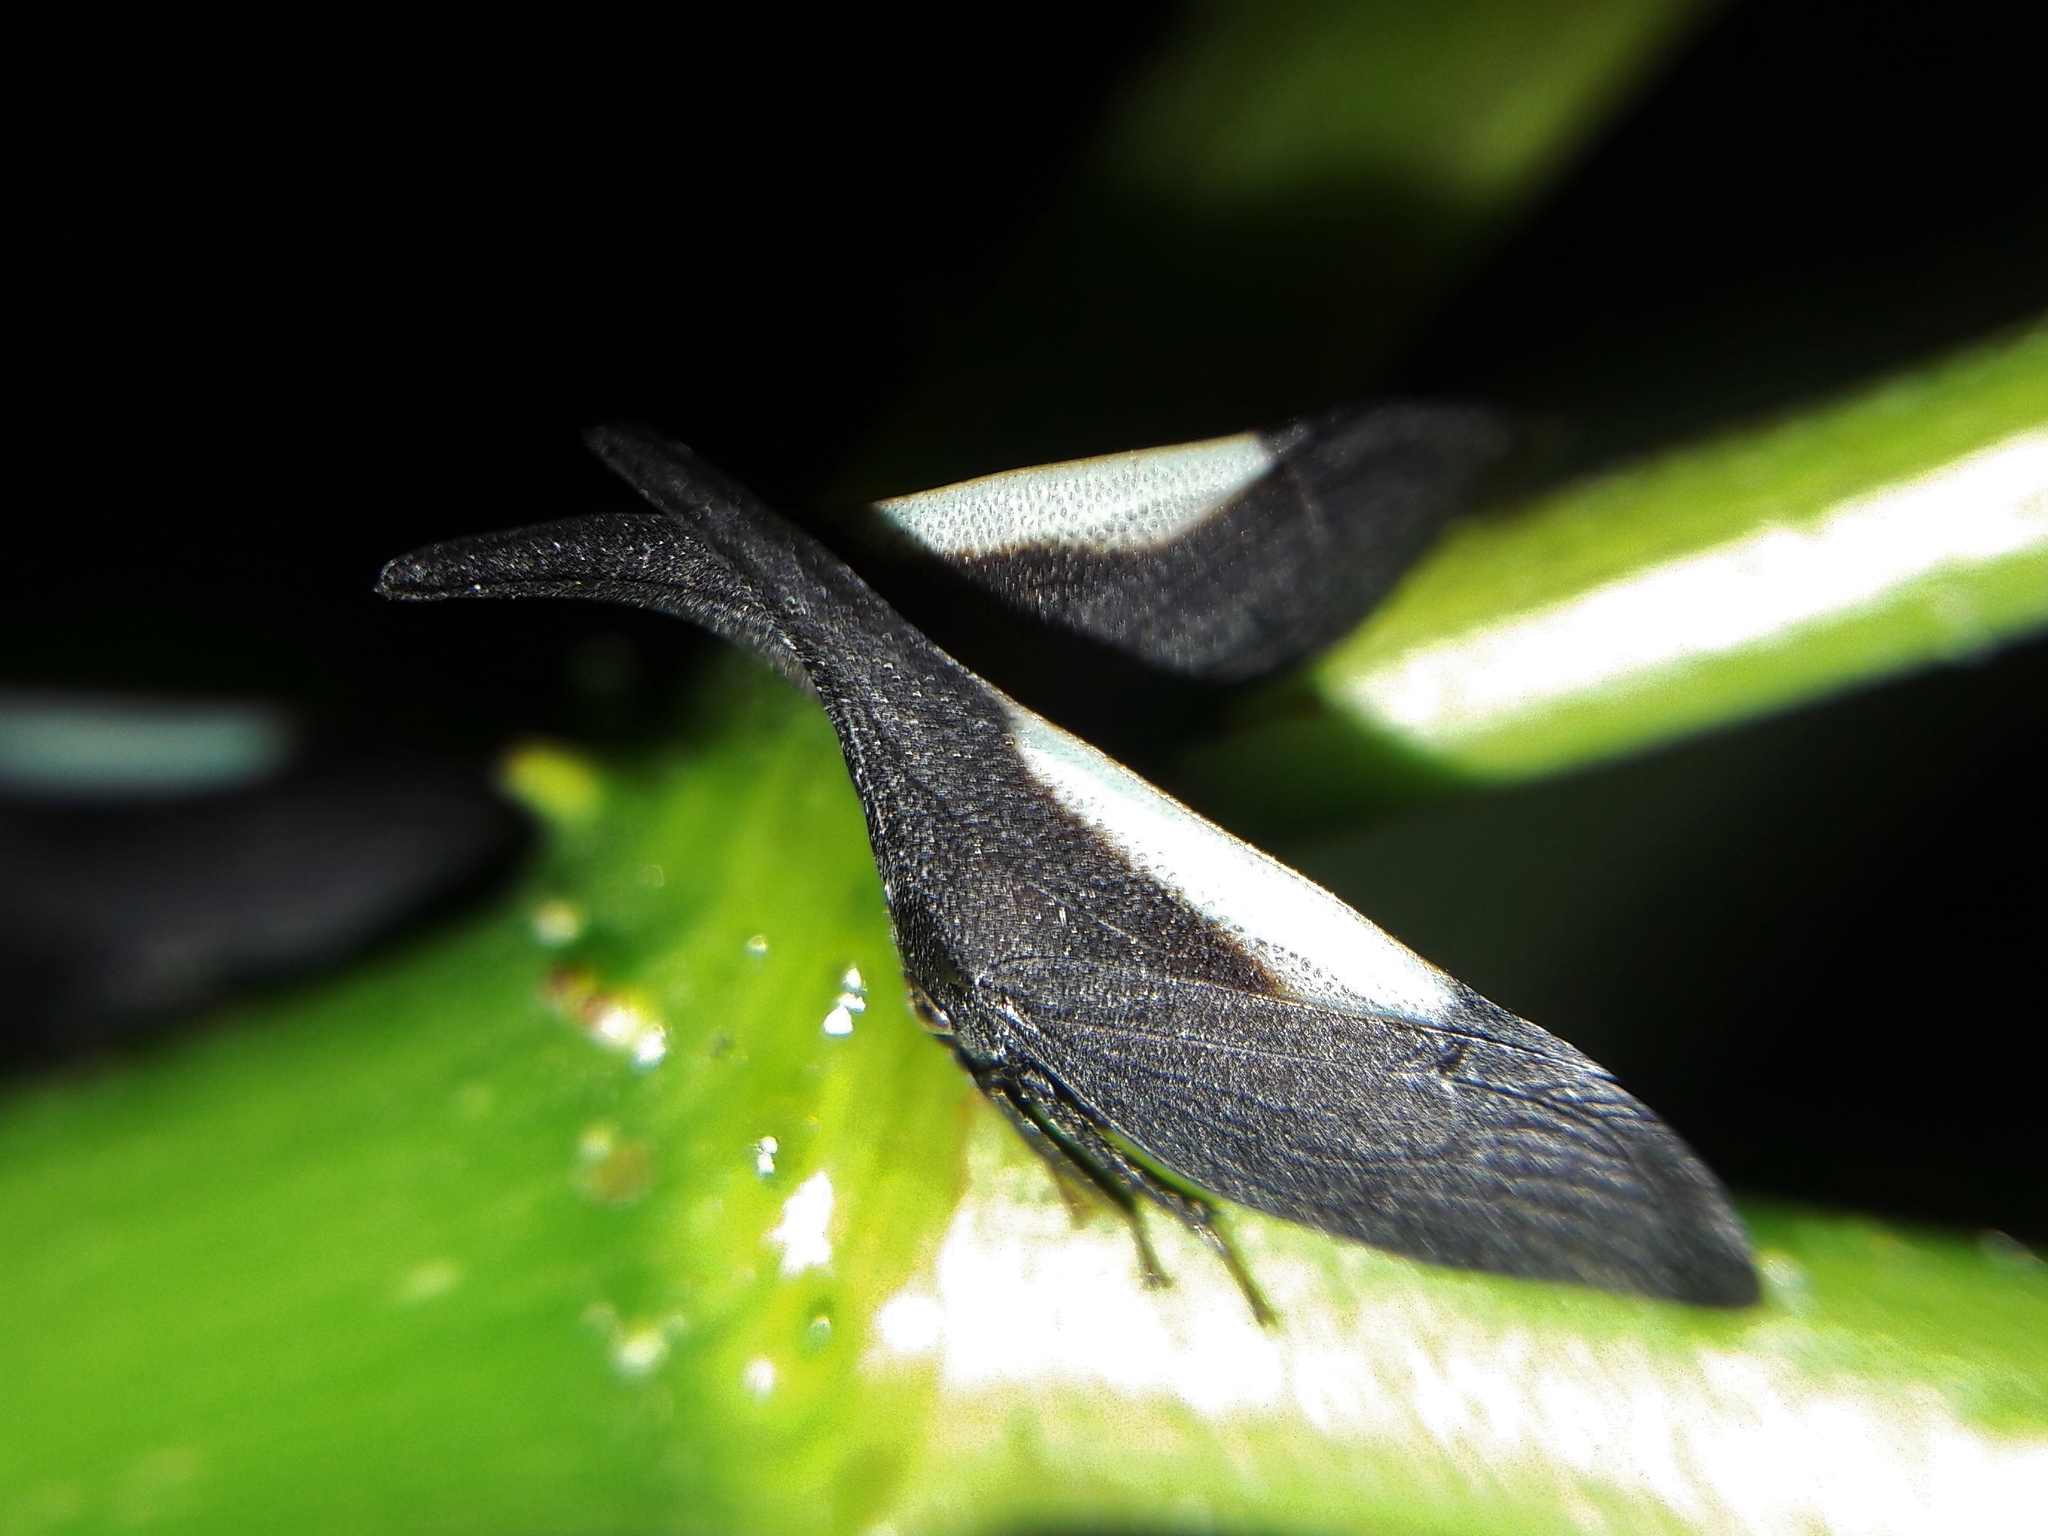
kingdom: Animalia
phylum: Arthropoda
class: Insecta
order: Hemiptera
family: Membracidae
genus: Enchenopa
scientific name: Enchenopa albidorsa
